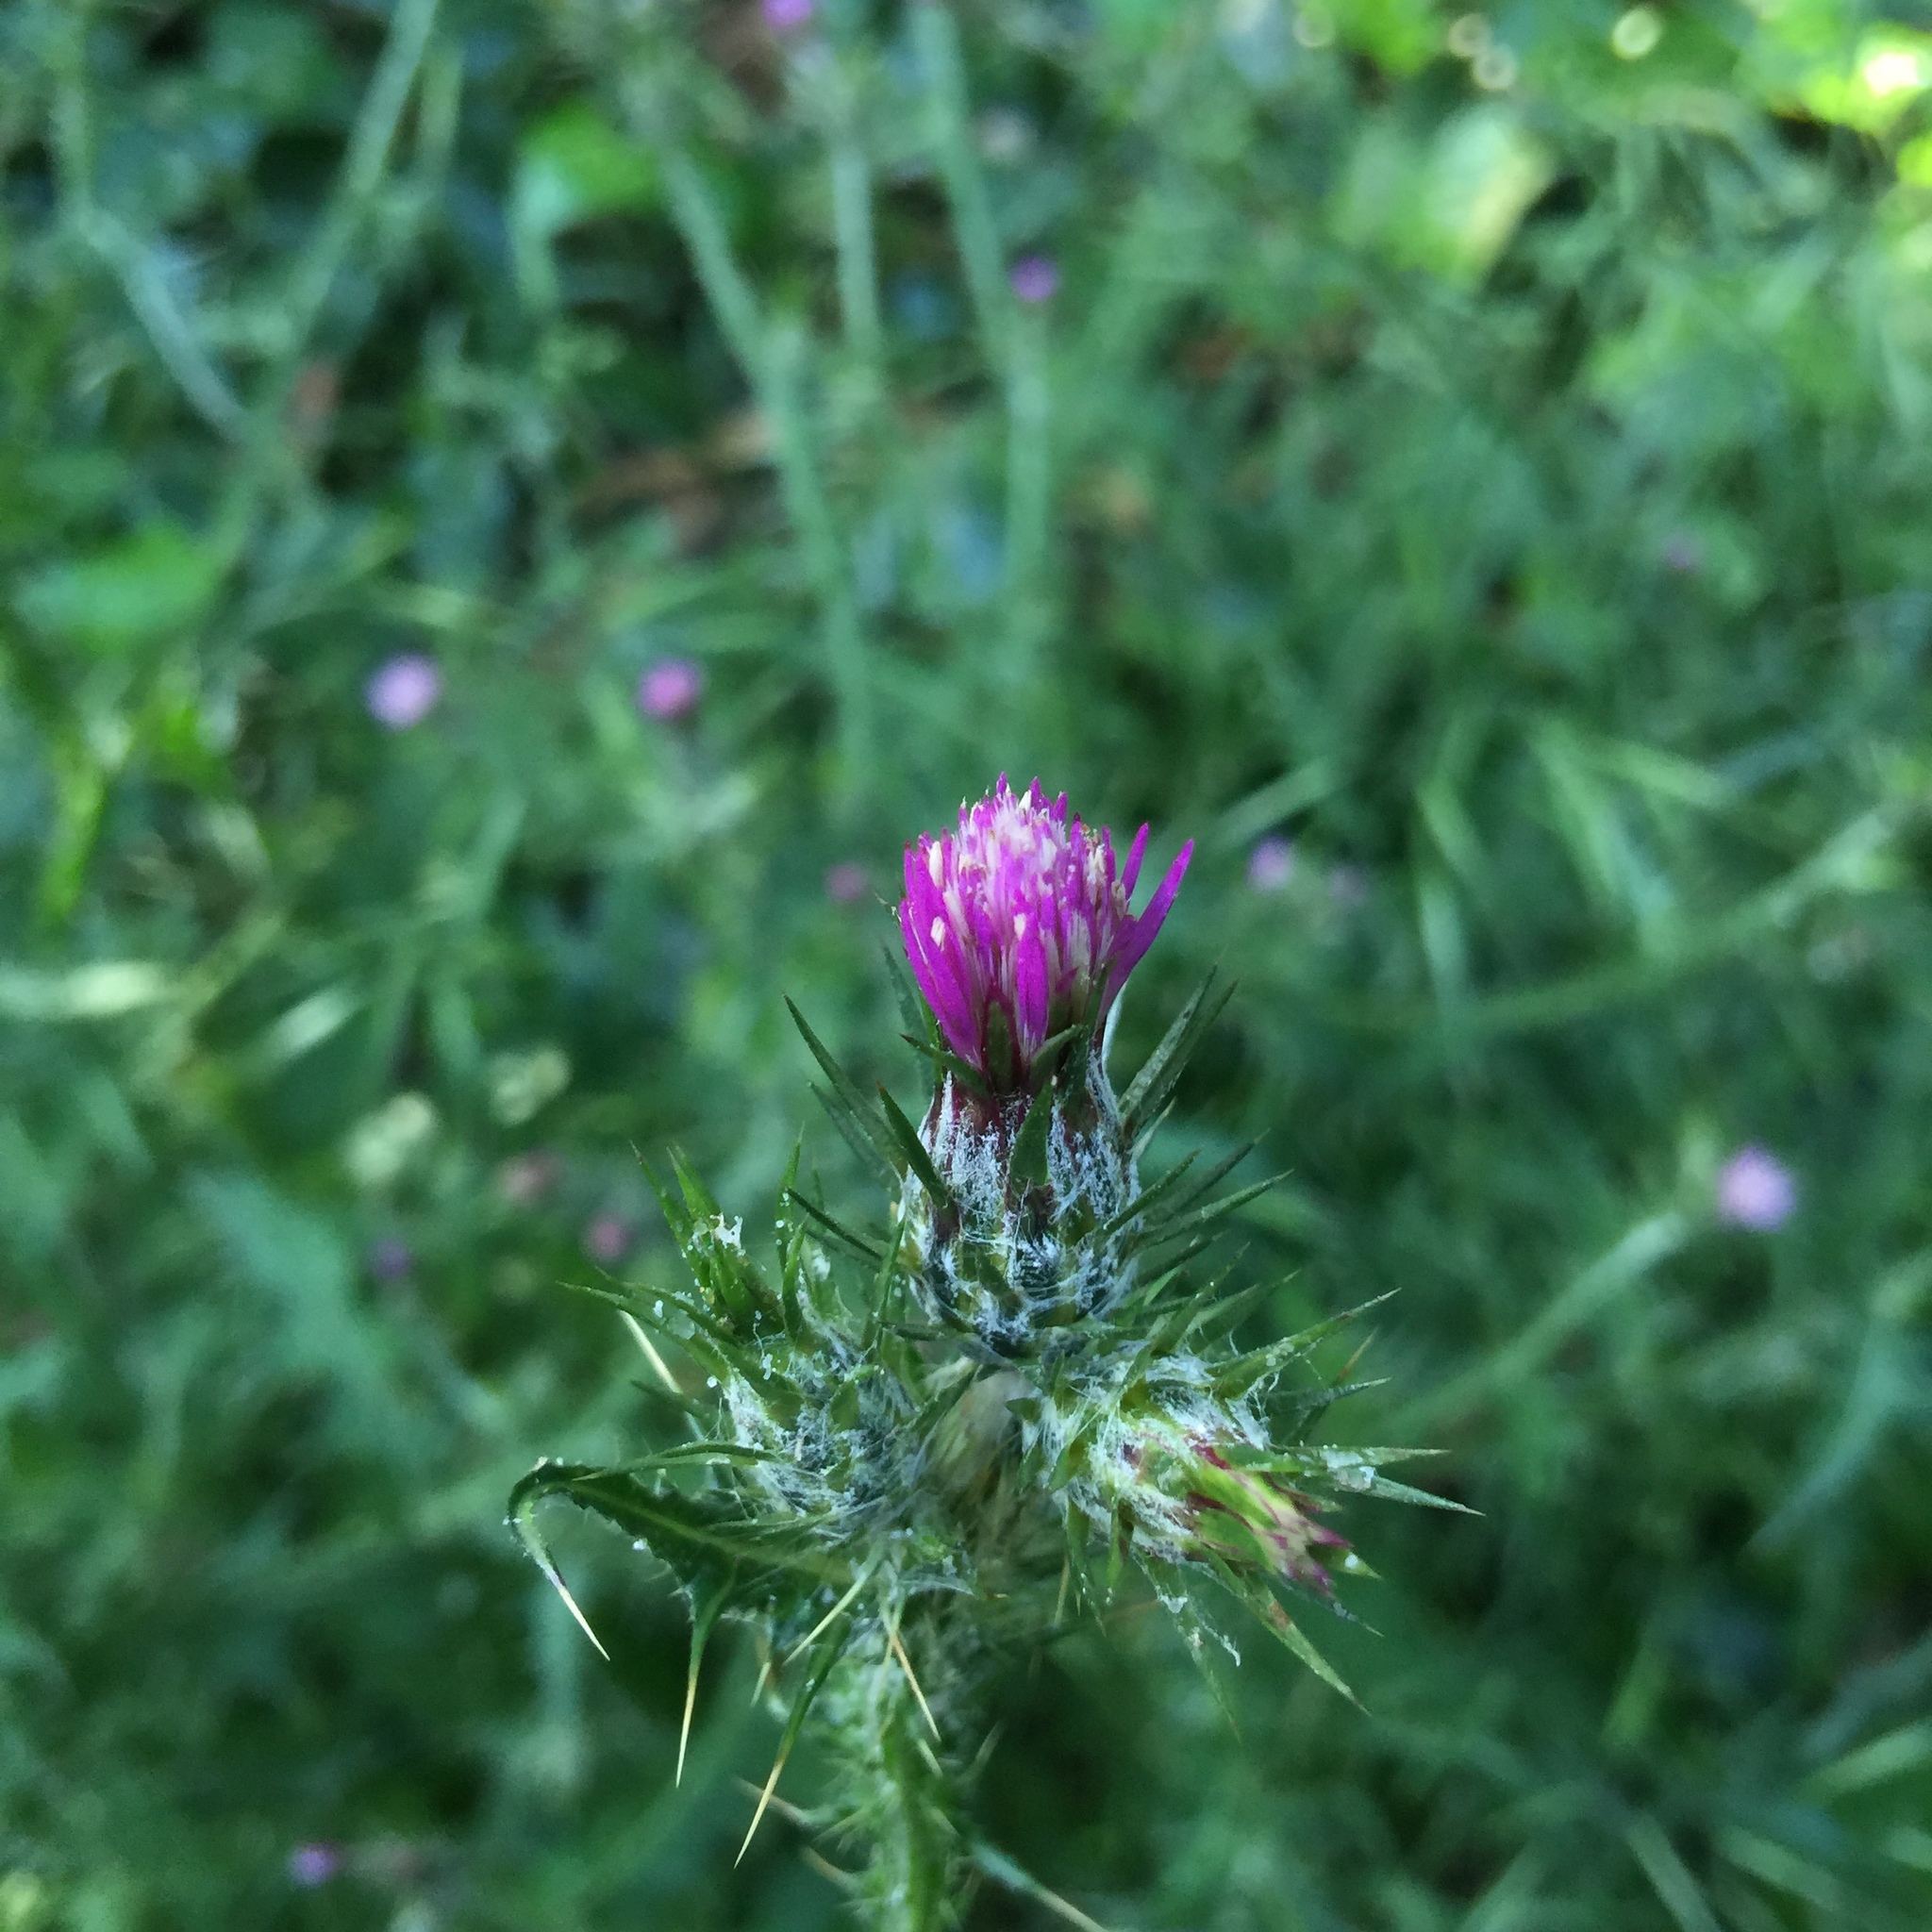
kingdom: Plantae
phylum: Tracheophyta
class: Magnoliopsida
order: Asterales
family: Asteraceae
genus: Carduus
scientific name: Carduus pycnocephalus
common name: Plymouth thistle
